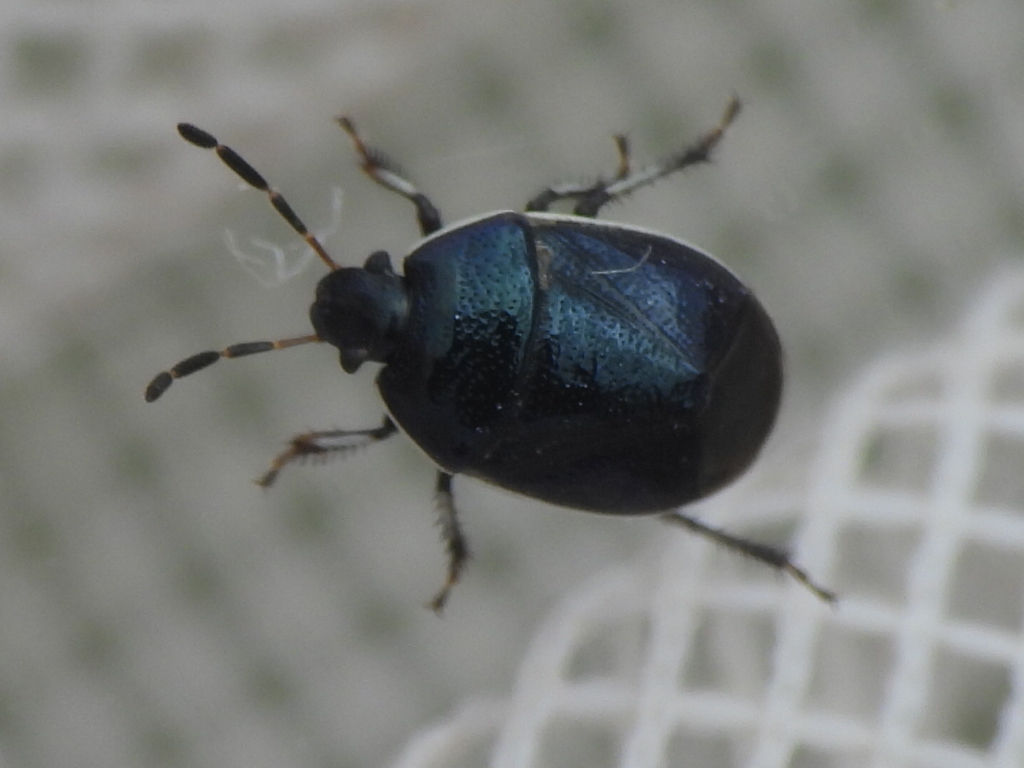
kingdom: Animalia
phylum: Arthropoda
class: Insecta
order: Hemiptera
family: Cydnidae
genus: Sehirus
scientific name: Sehirus cinctus
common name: White-margined burrower bug
